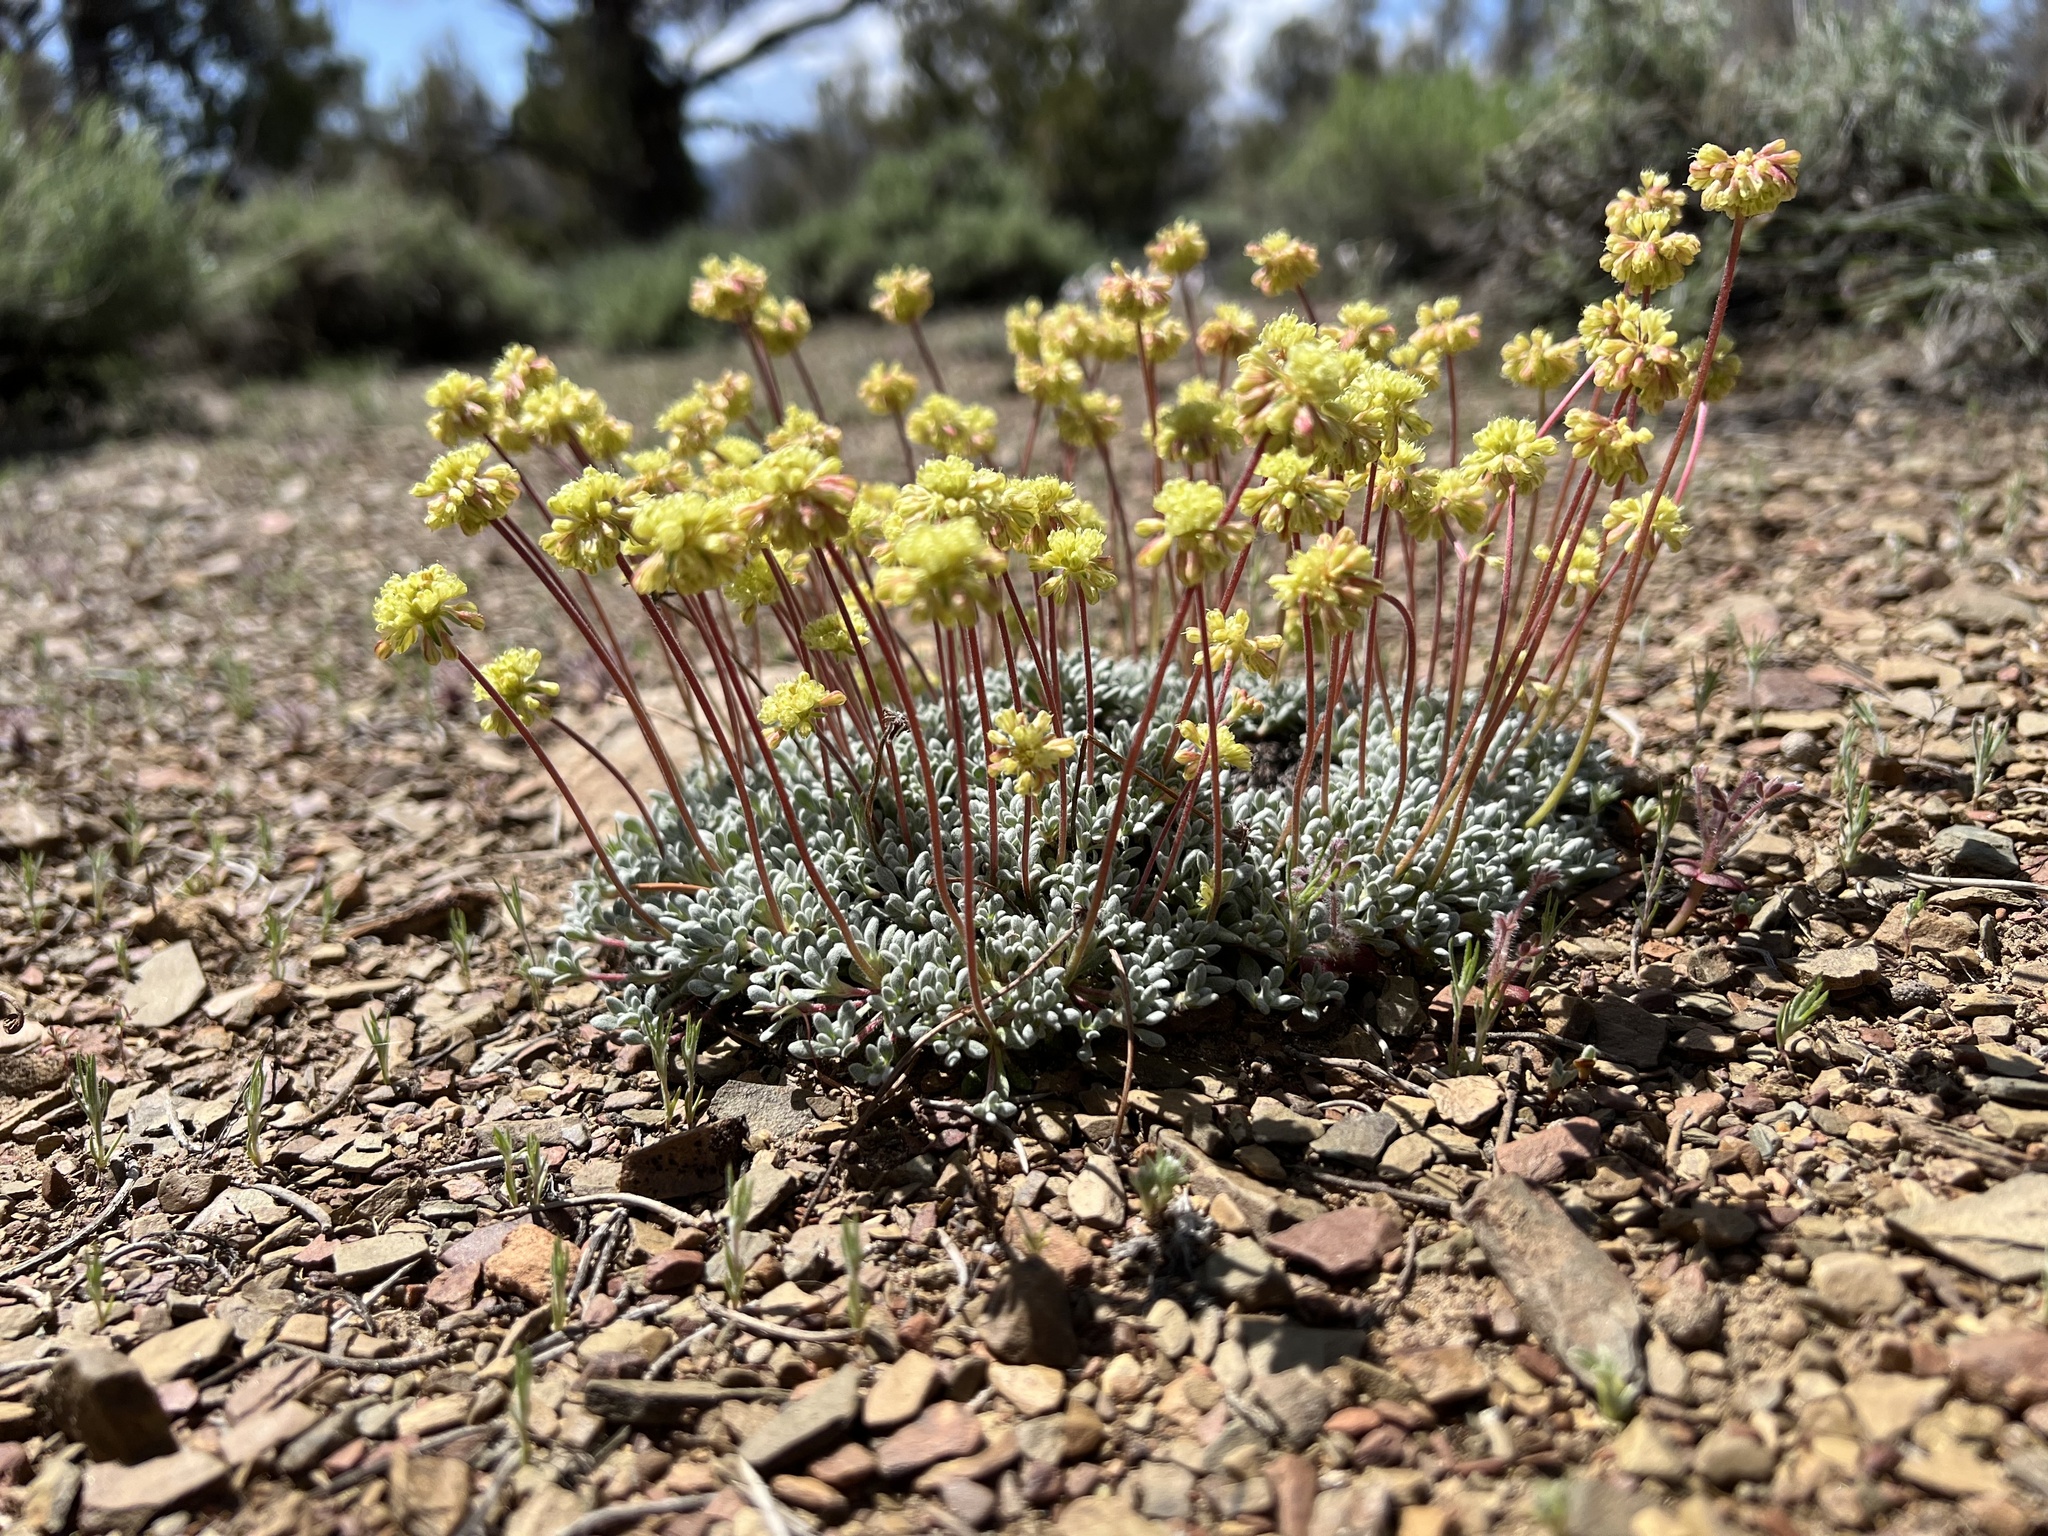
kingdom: Plantae
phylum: Tracheophyta
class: Magnoliopsida
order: Caryophyllales
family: Polygonaceae
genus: Eriogonum
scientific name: Eriogonum caespitosum
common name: Matted wild buckwheat
